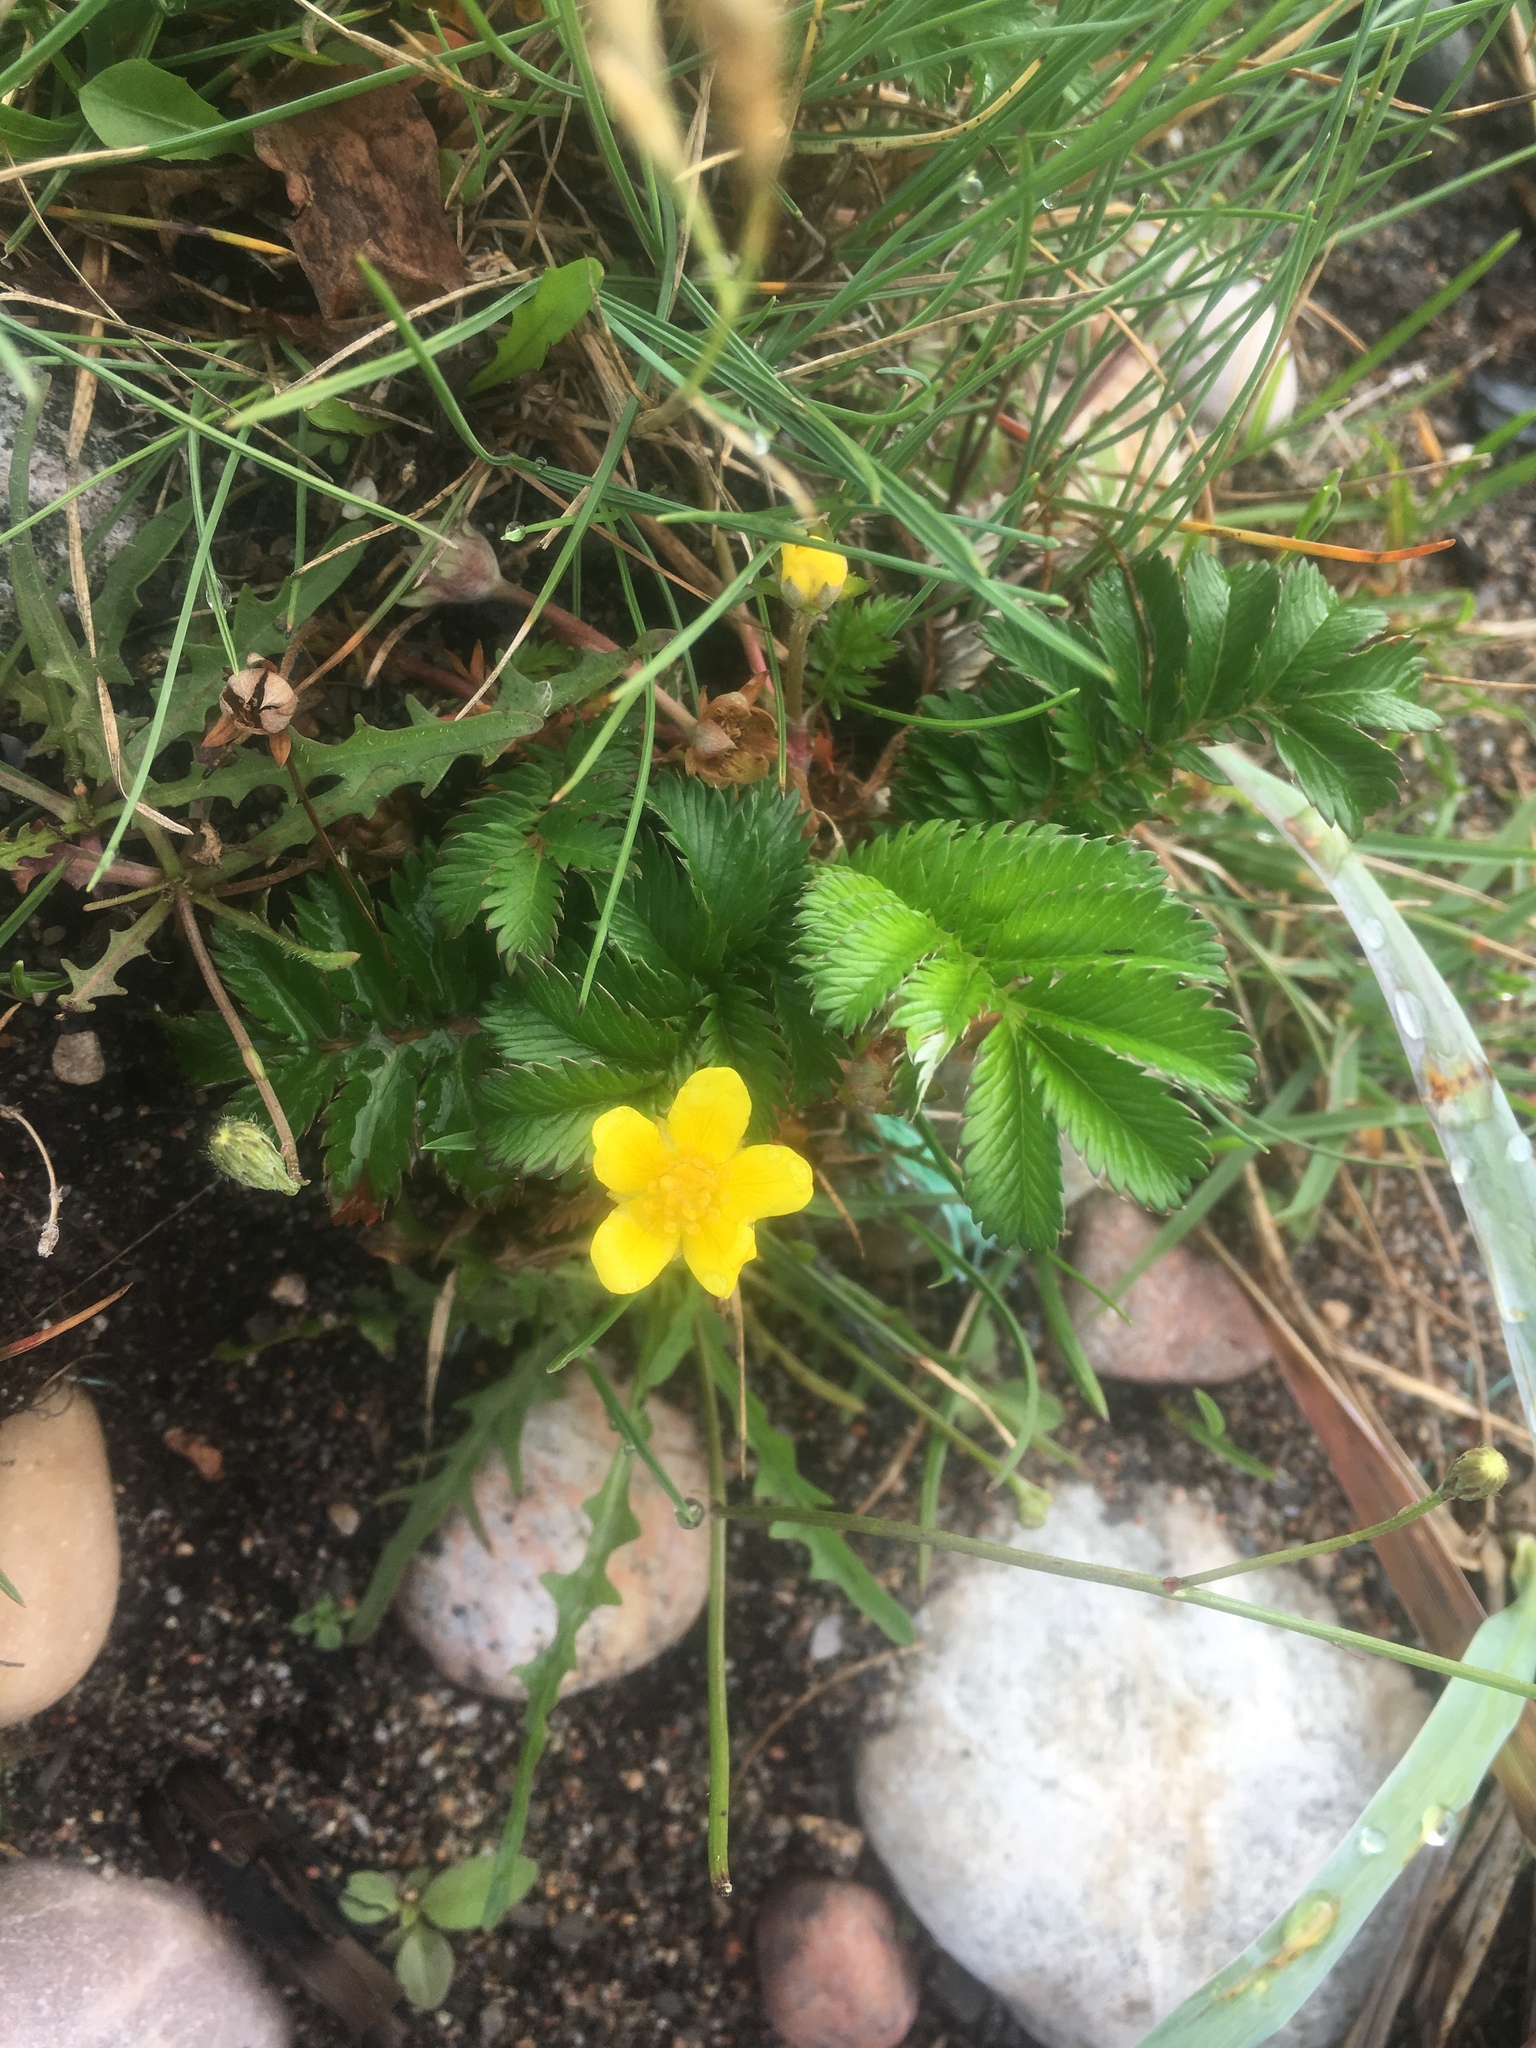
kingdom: Plantae
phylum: Tracheophyta
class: Magnoliopsida
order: Rosales
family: Rosaceae
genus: Argentina
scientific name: Argentina anserina
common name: Common silverweed
